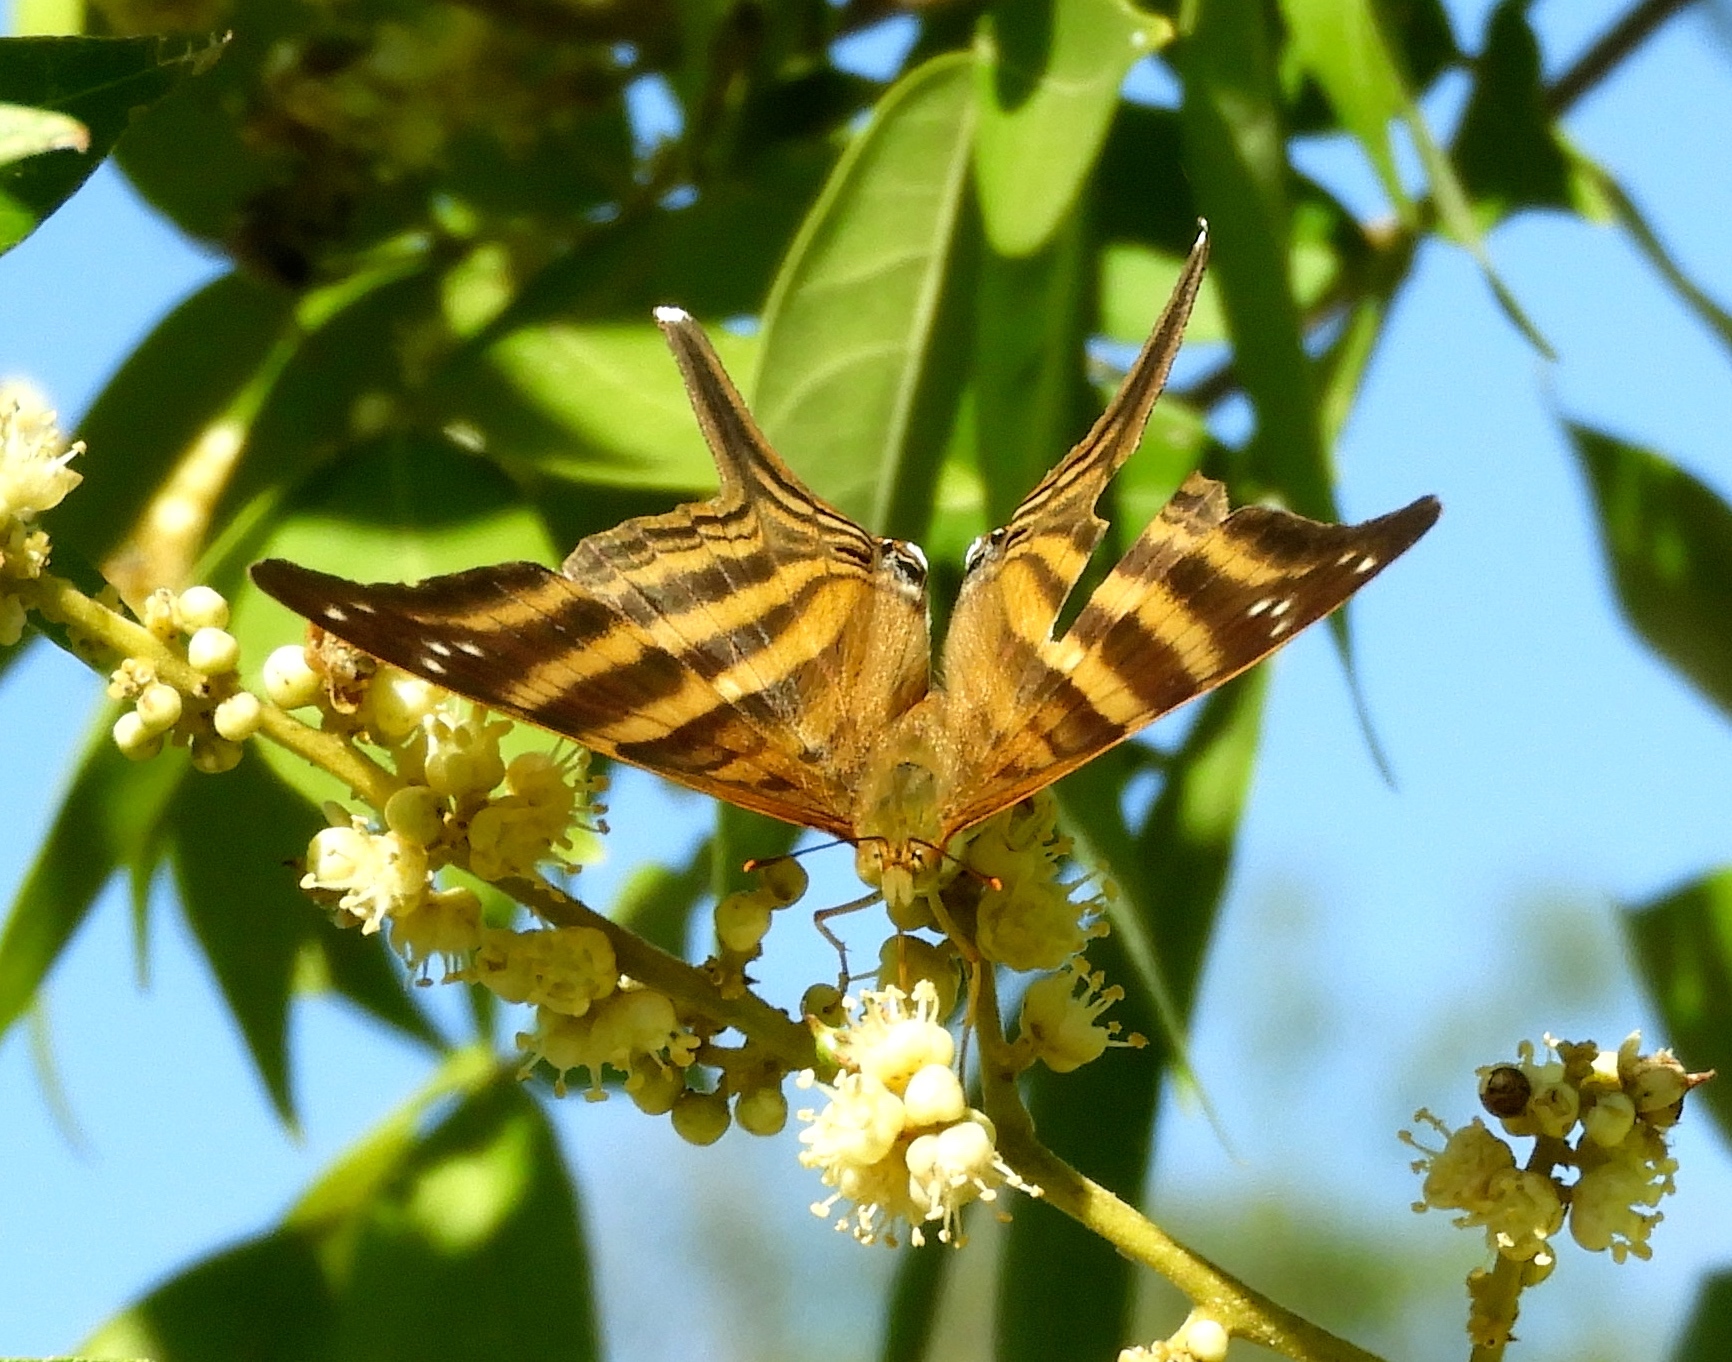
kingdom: Animalia
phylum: Arthropoda
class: Insecta
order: Lepidoptera
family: Nymphalidae
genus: Marpesia
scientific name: Marpesia chiron
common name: Many-banded daggerwing
